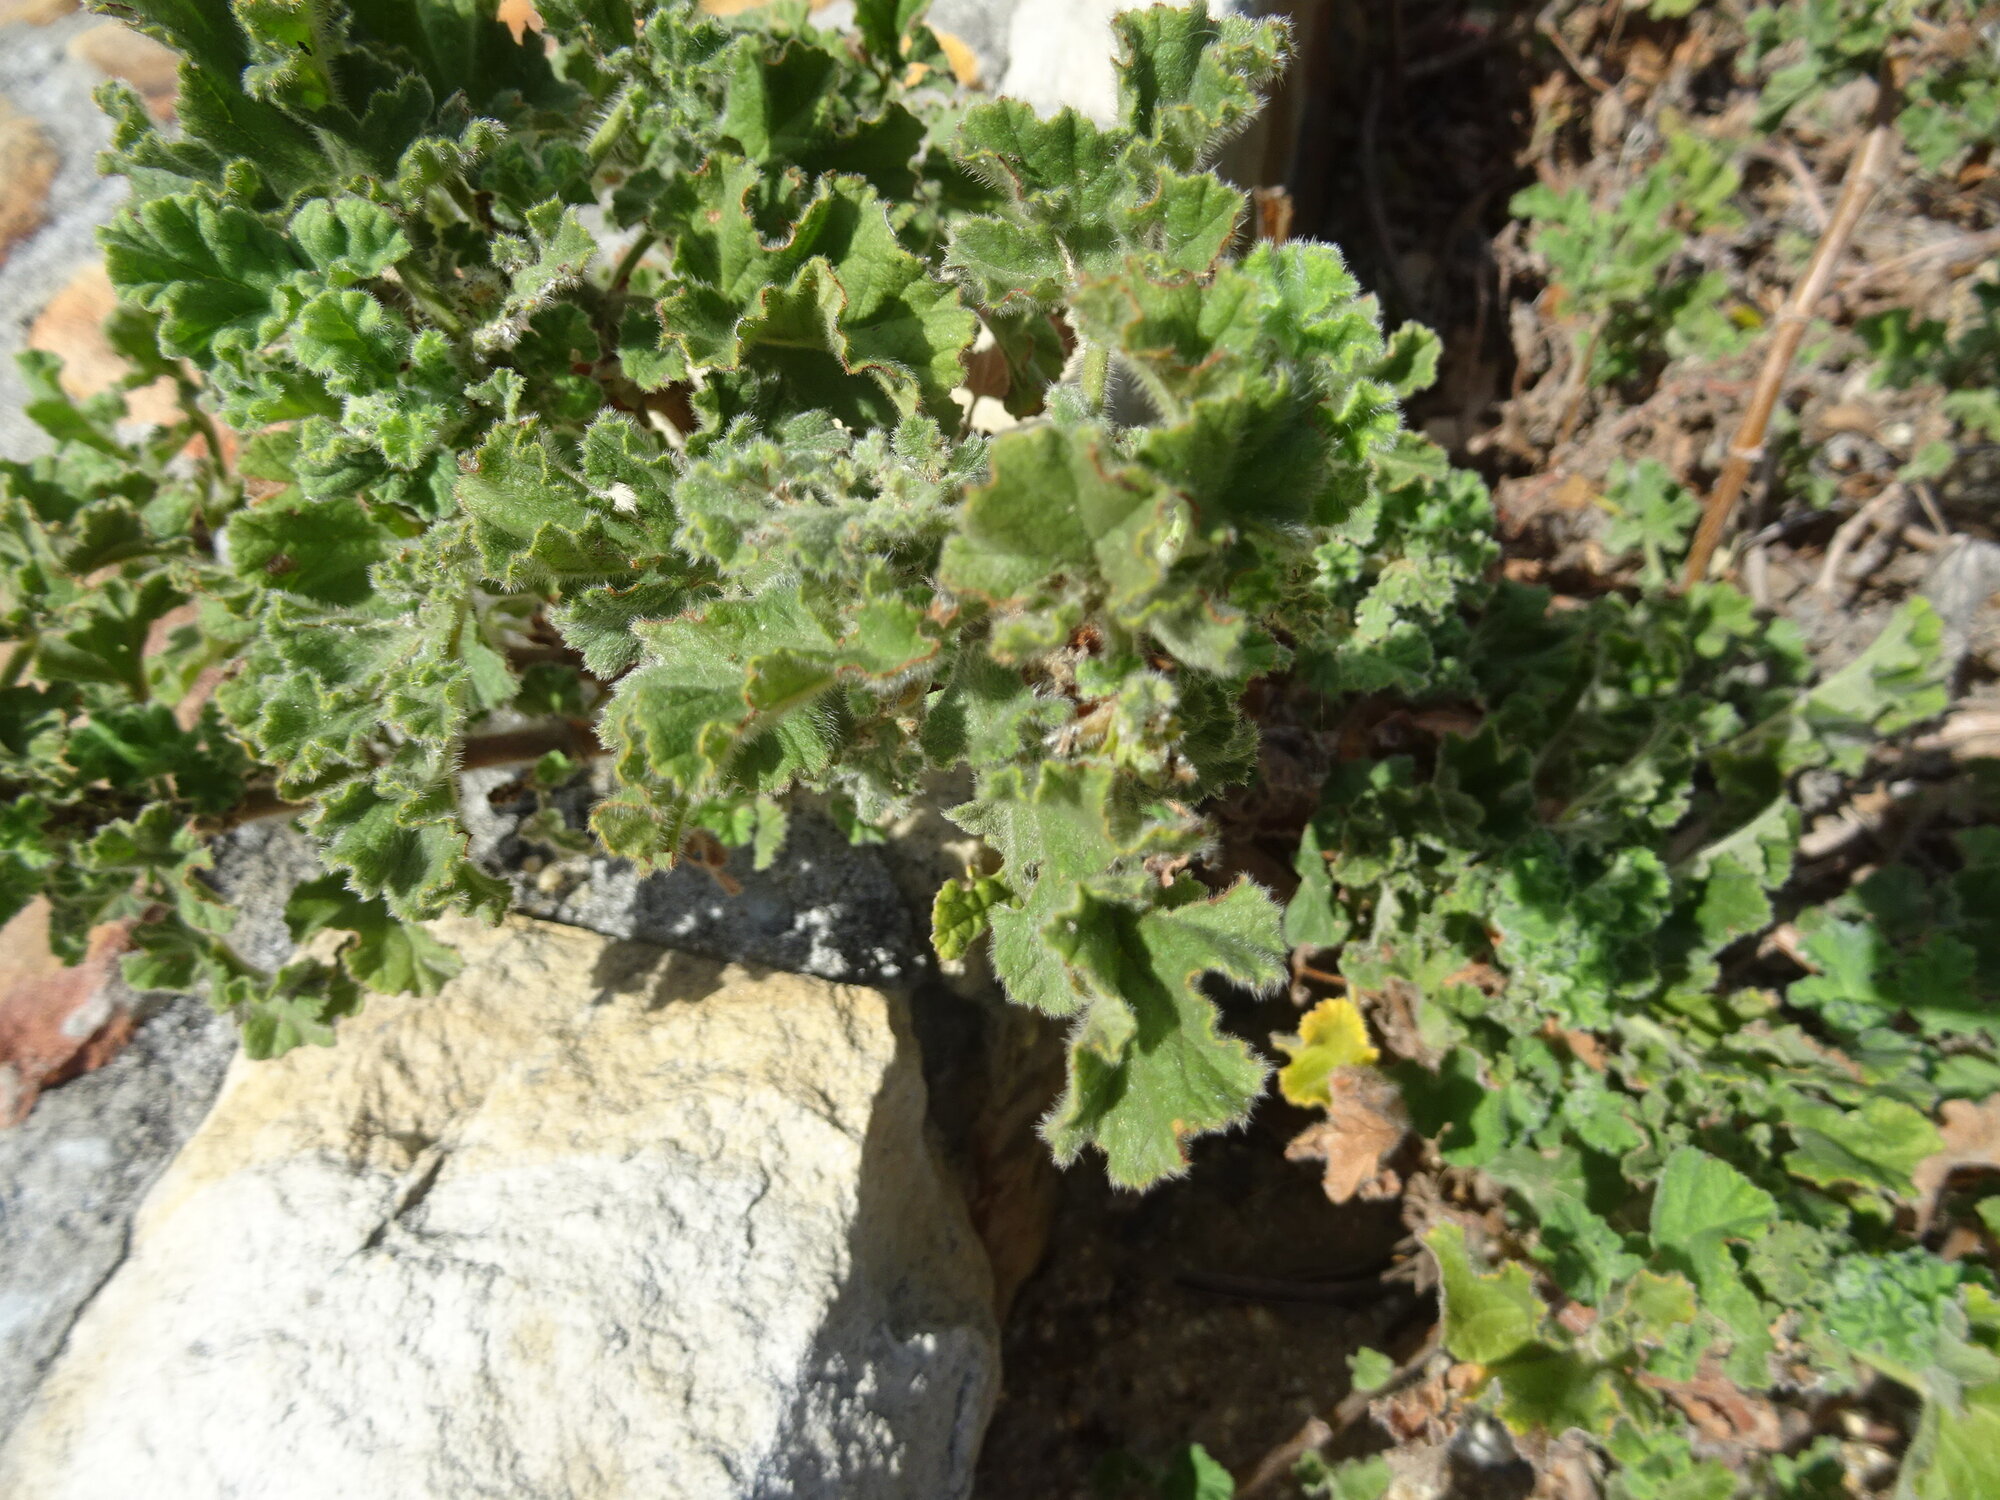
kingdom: Plantae
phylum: Tracheophyta
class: Magnoliopsida
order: Geraniales
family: Geraniaceae
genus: Pelargonium
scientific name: Pelargonium capitatum
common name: Rose scented geranium
